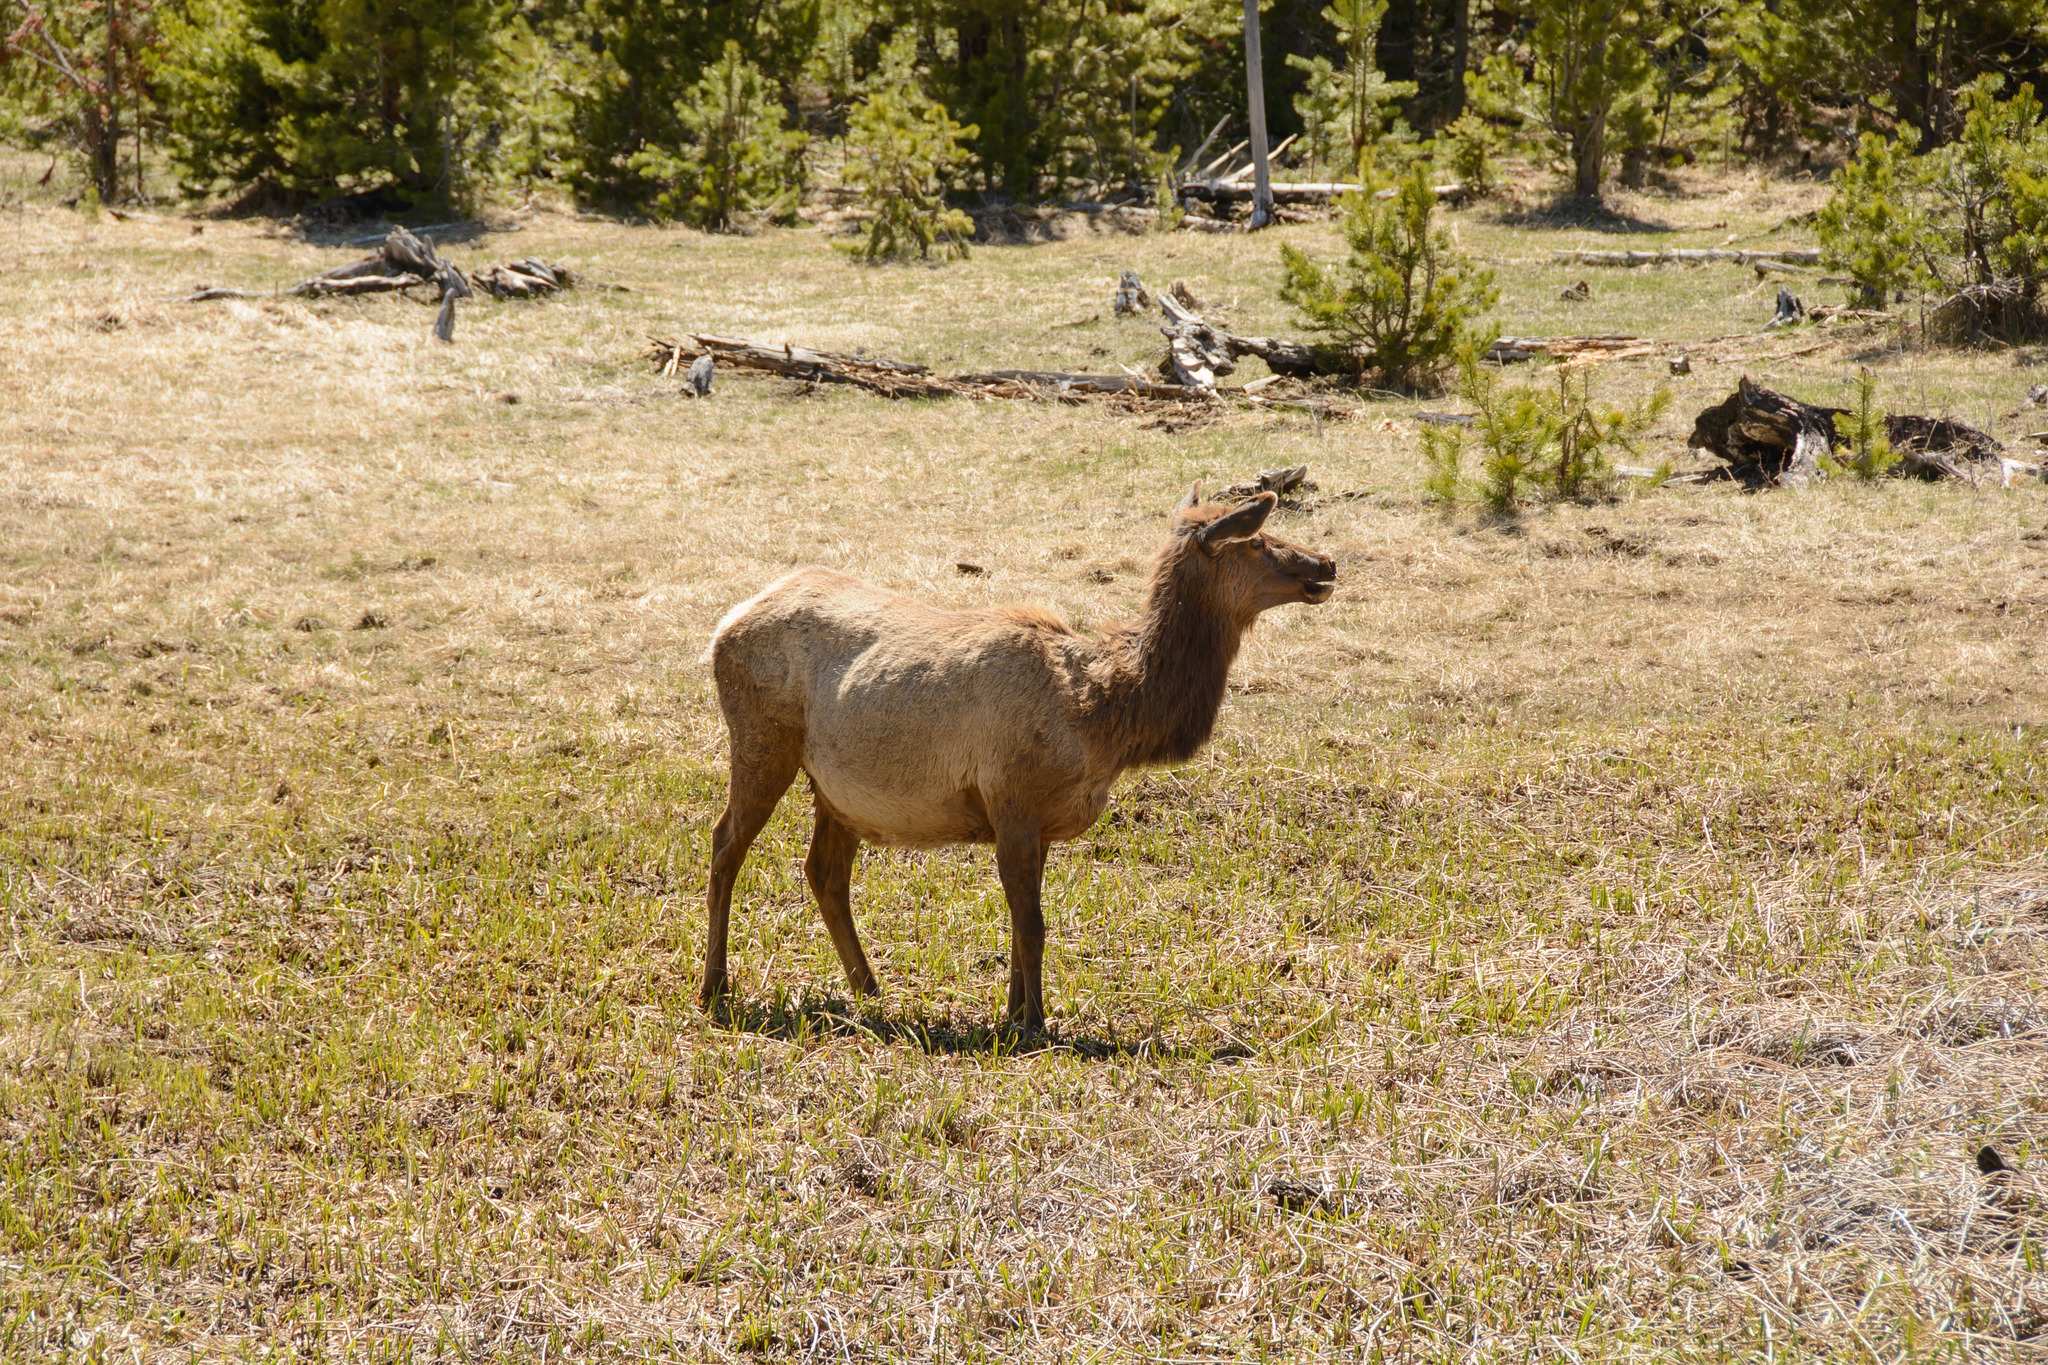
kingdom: Animalia
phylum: Chordata
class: Mammalia
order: Artiodactyla
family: Cervidae
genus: Cervus
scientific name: Cervus elaphus
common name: Red deer
